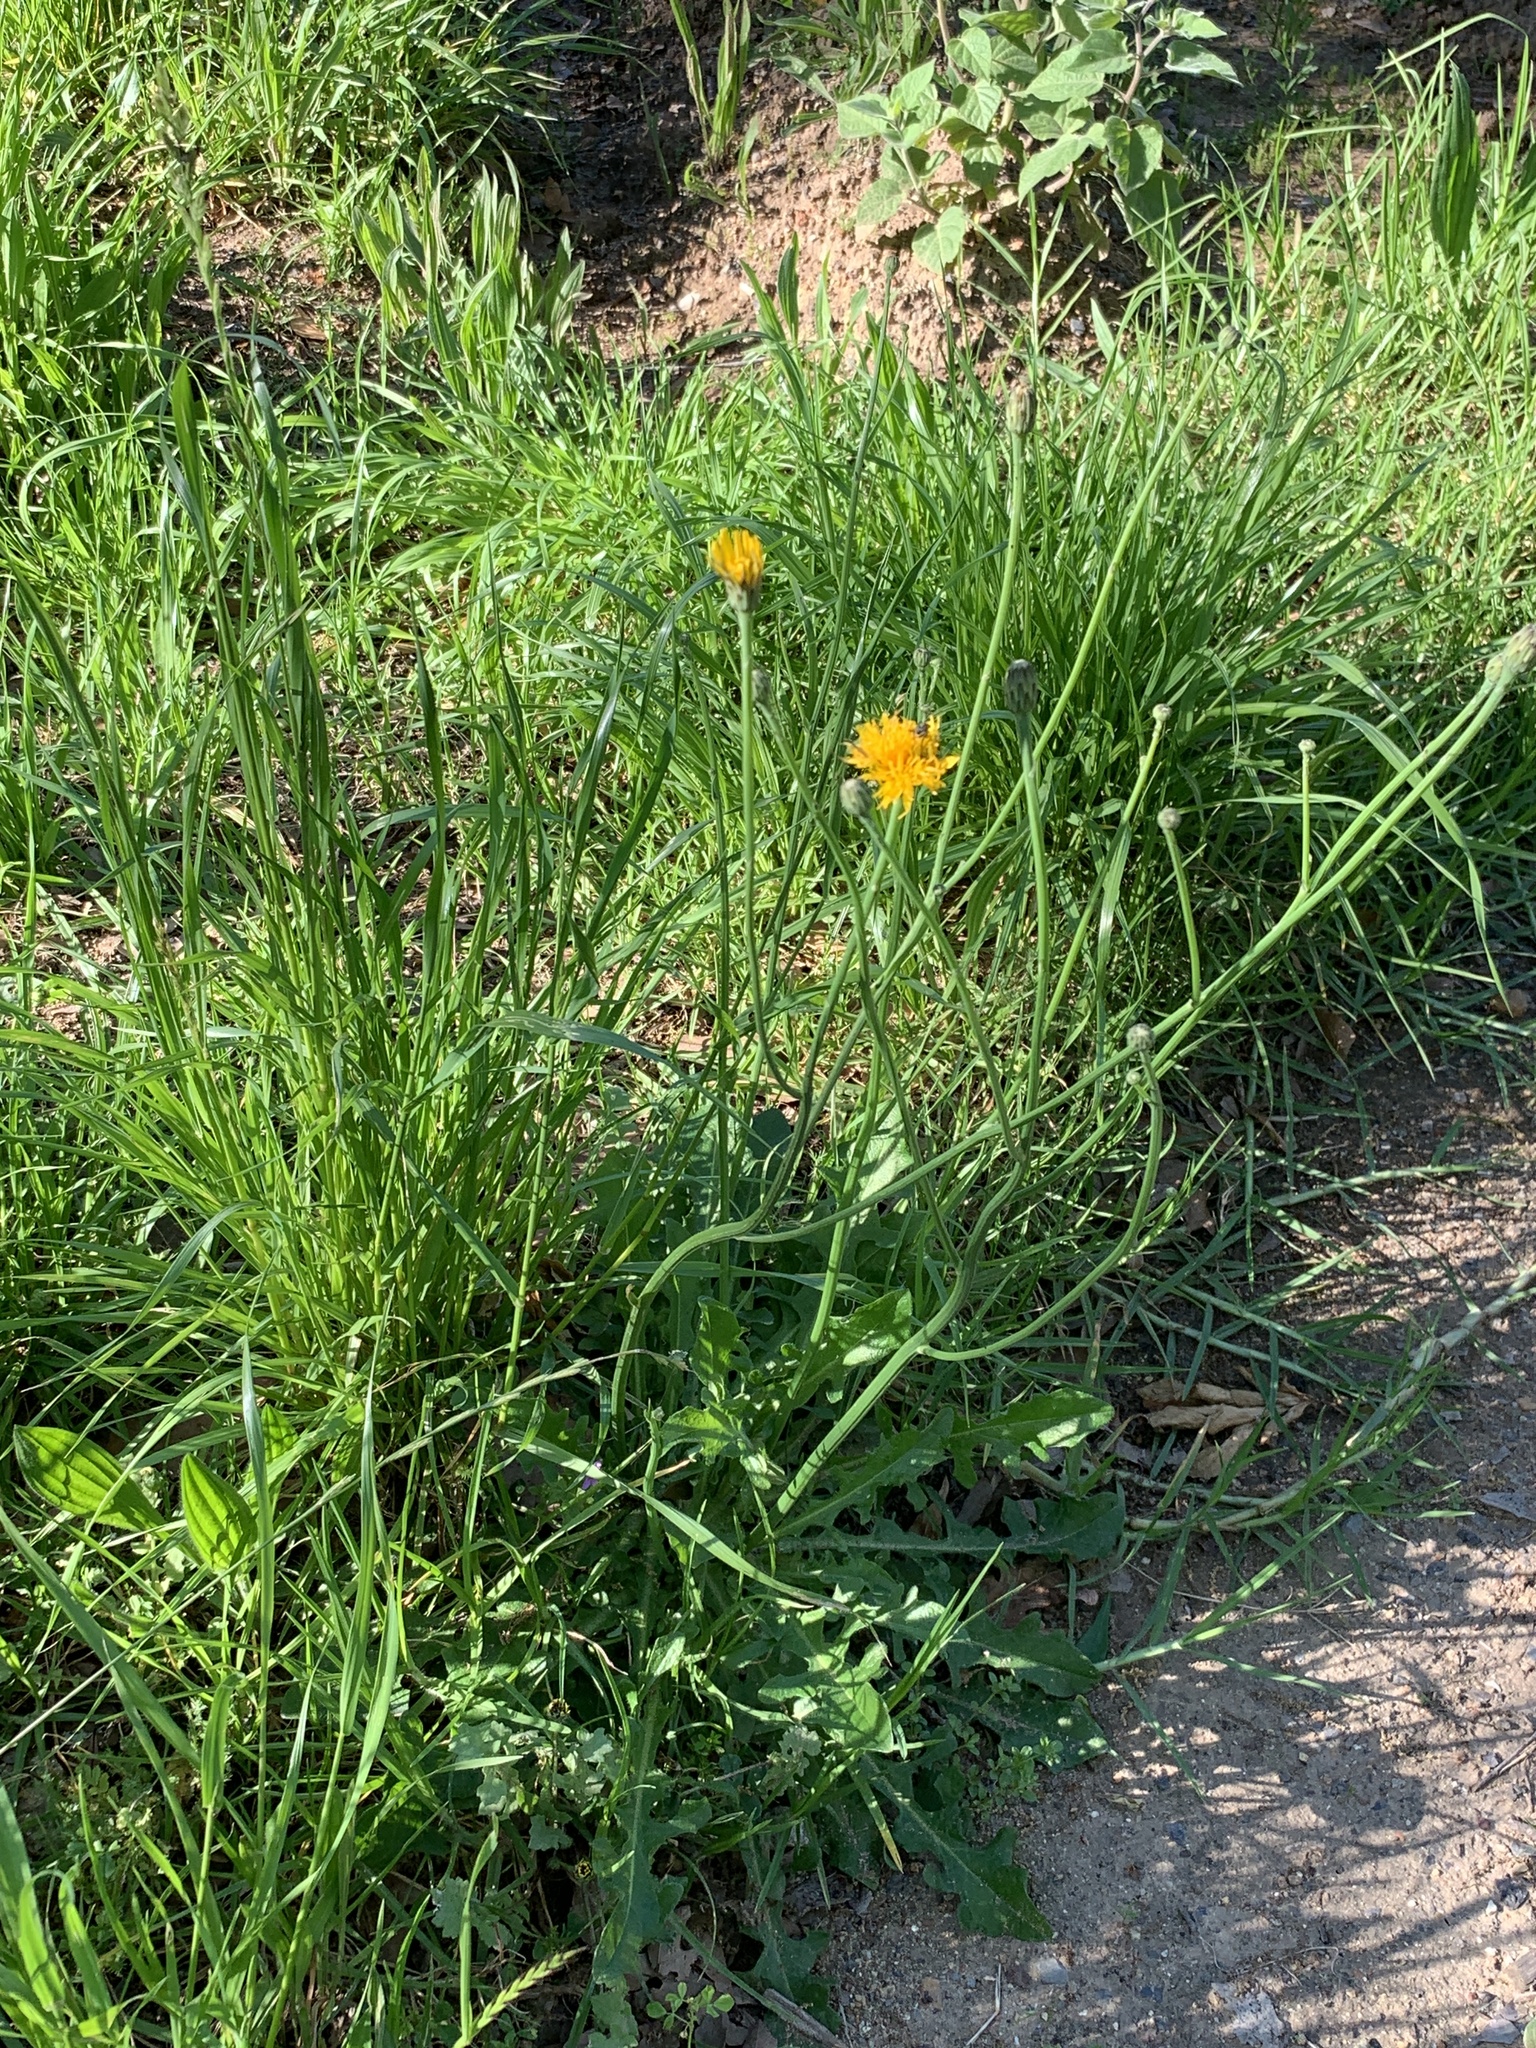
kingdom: Plantae
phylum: Tracheophyta
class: Magnoliopsida
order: Asterales
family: Asteraceae
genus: Hypochaeris
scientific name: Hypochaeris radicata
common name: Flatweed
